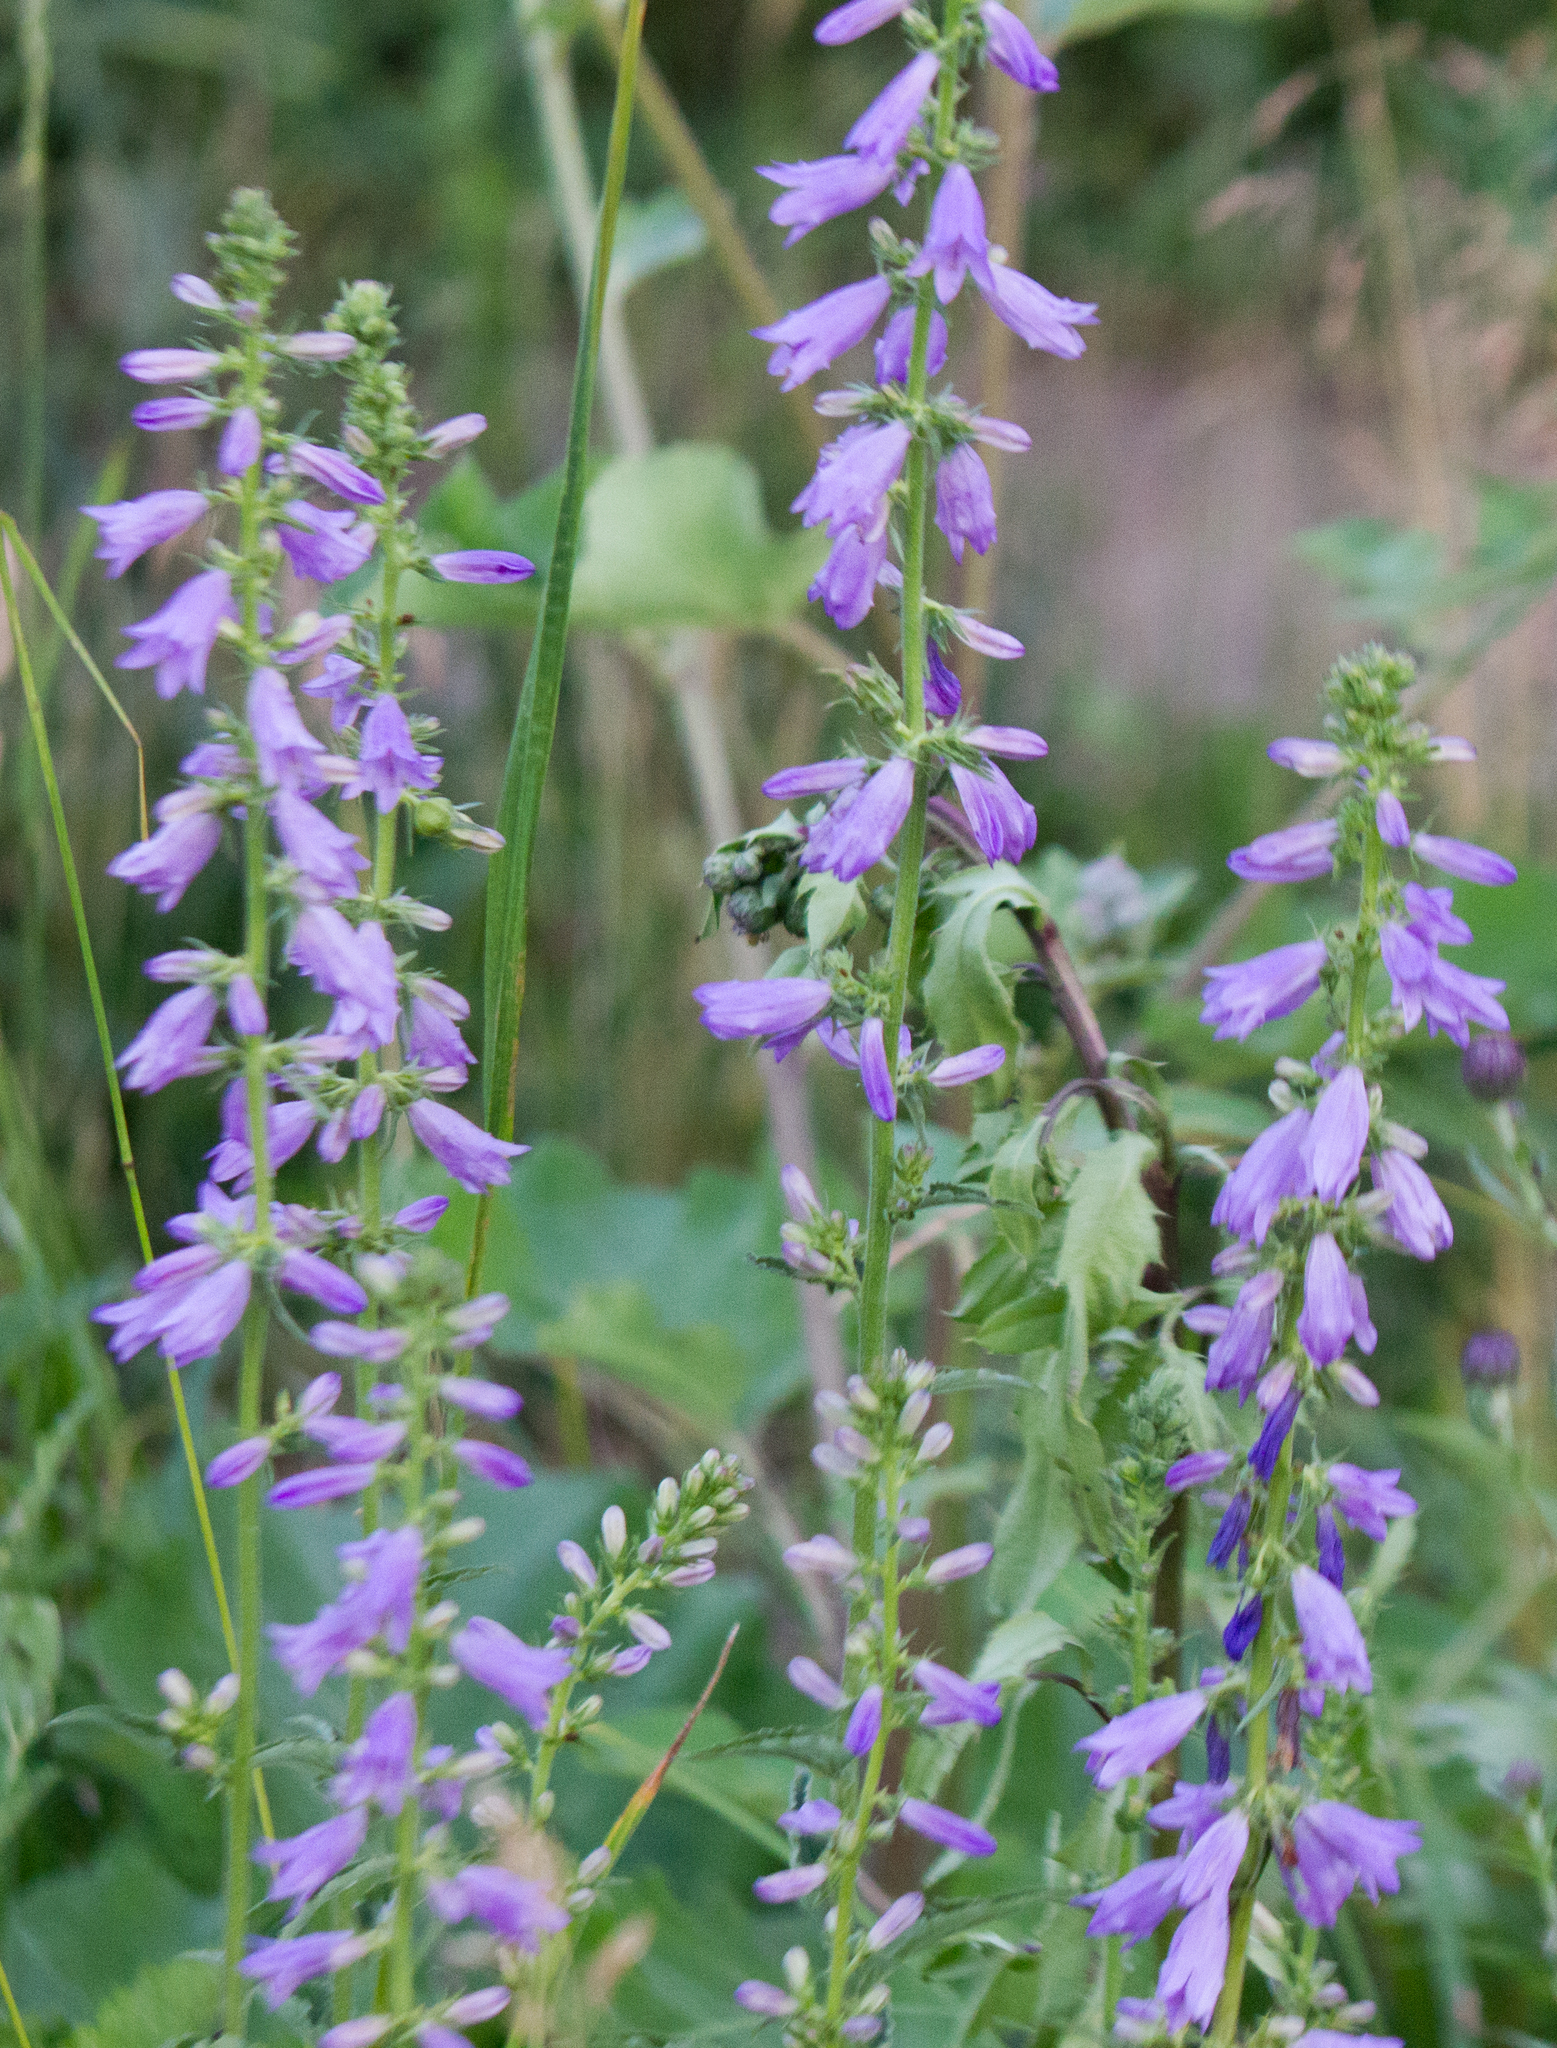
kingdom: Plantae
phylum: Tracheophyta
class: Magnoliopsida
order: Asterales
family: Campanulaceae
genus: Campanula
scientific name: Campanula bononiensis
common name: Pale bellflower
